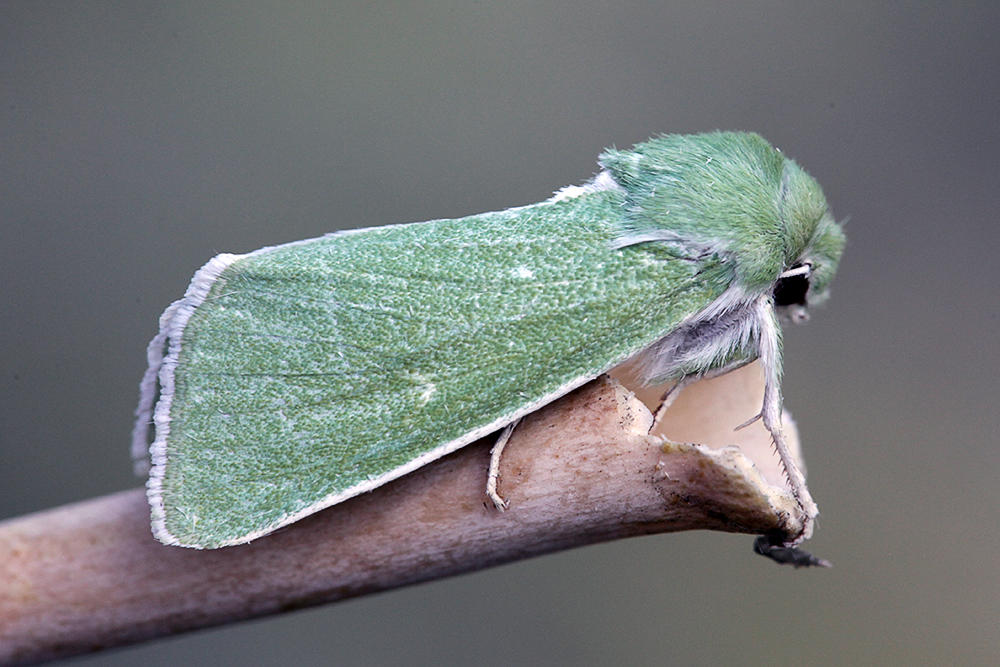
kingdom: Animalia
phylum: Arthropoda
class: Insecta
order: Lepidoptera
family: Noctuidae
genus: Calamia
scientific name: Calamia tridens
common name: Burren green
